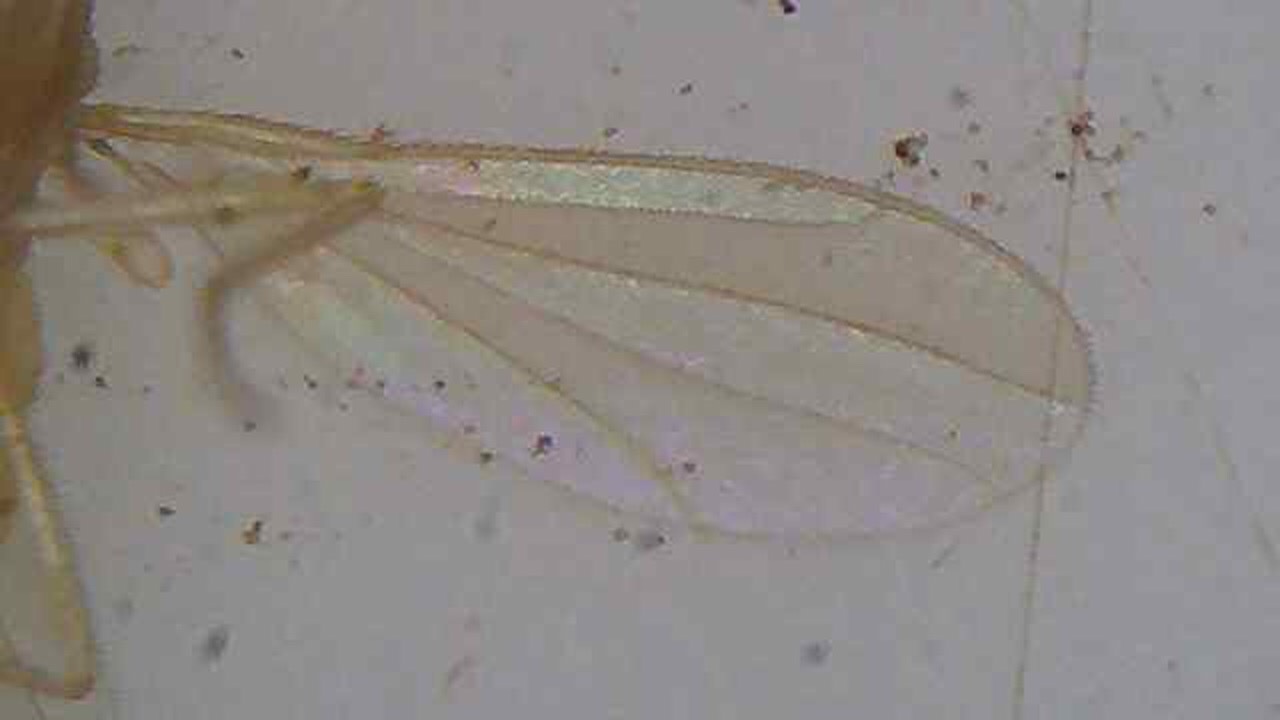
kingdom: Animalia
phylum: Arthropoda
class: Insecta
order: Diptera
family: Empididae
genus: Monodromia
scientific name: Monodromia fragilis
